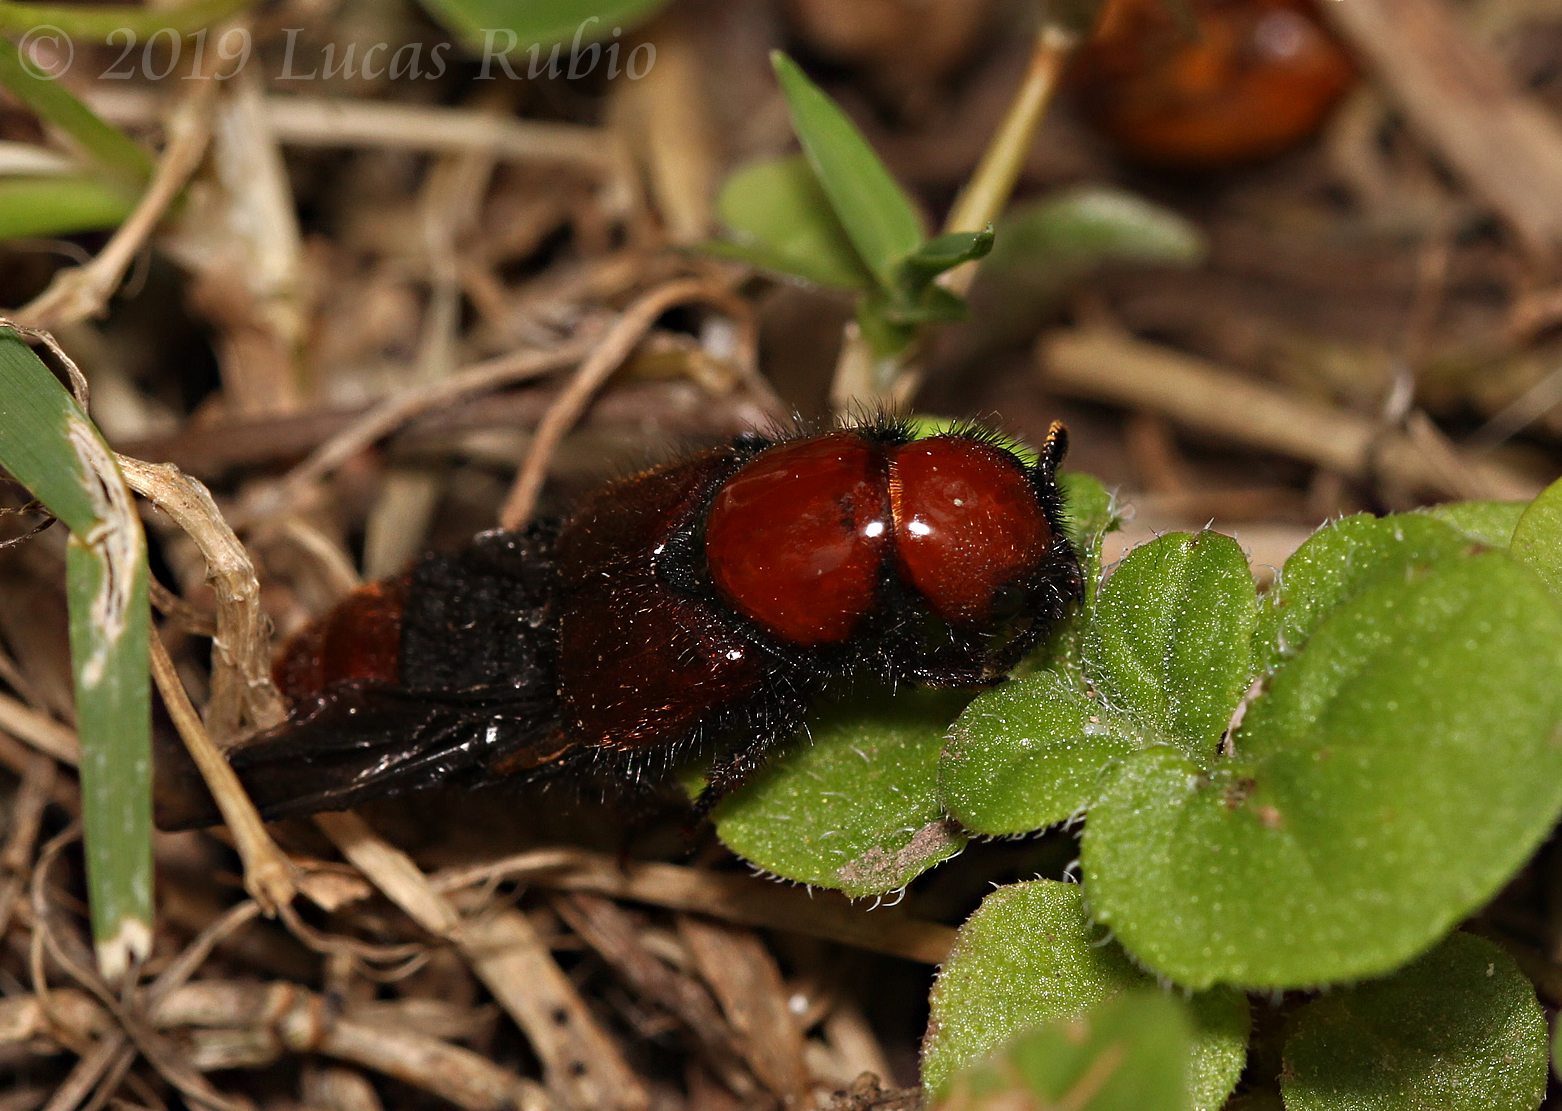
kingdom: Animalia
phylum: Arthropoda
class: Insecta
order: Coleoptera
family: Staphylinidae
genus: Haematodes
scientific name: Haematodes bicolor
